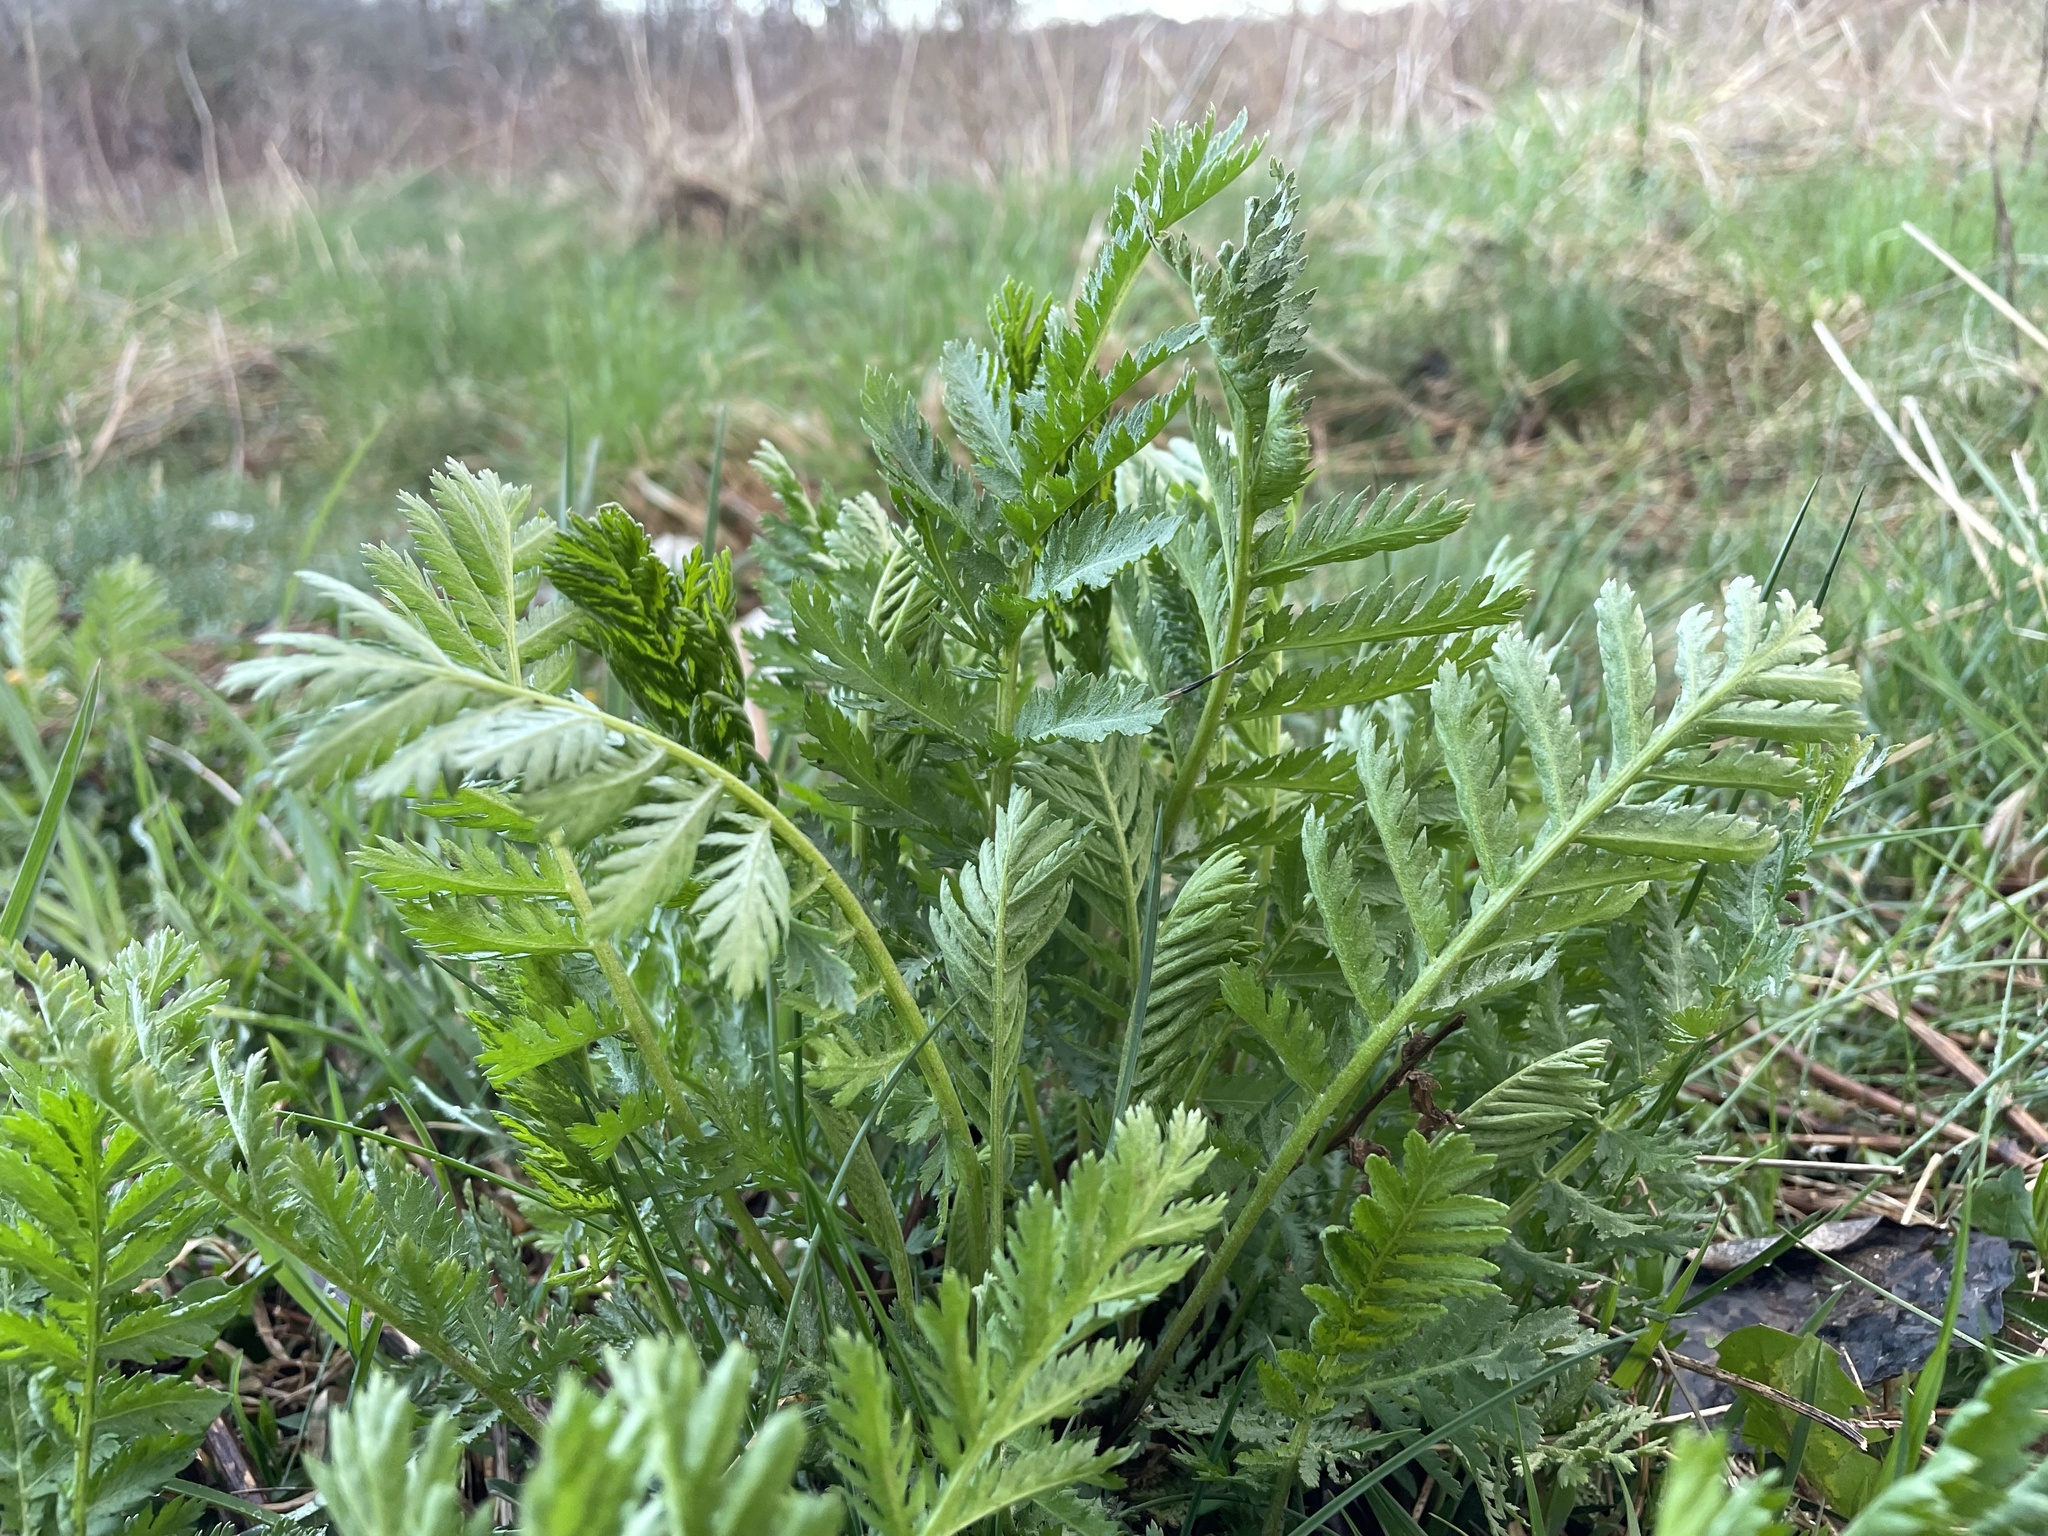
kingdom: Plantae
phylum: Tracheophyta
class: Magnoliopsida
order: Asterales
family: Asteraceae
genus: Tanacetum
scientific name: Tanacetum vulgare
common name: Common tansy
